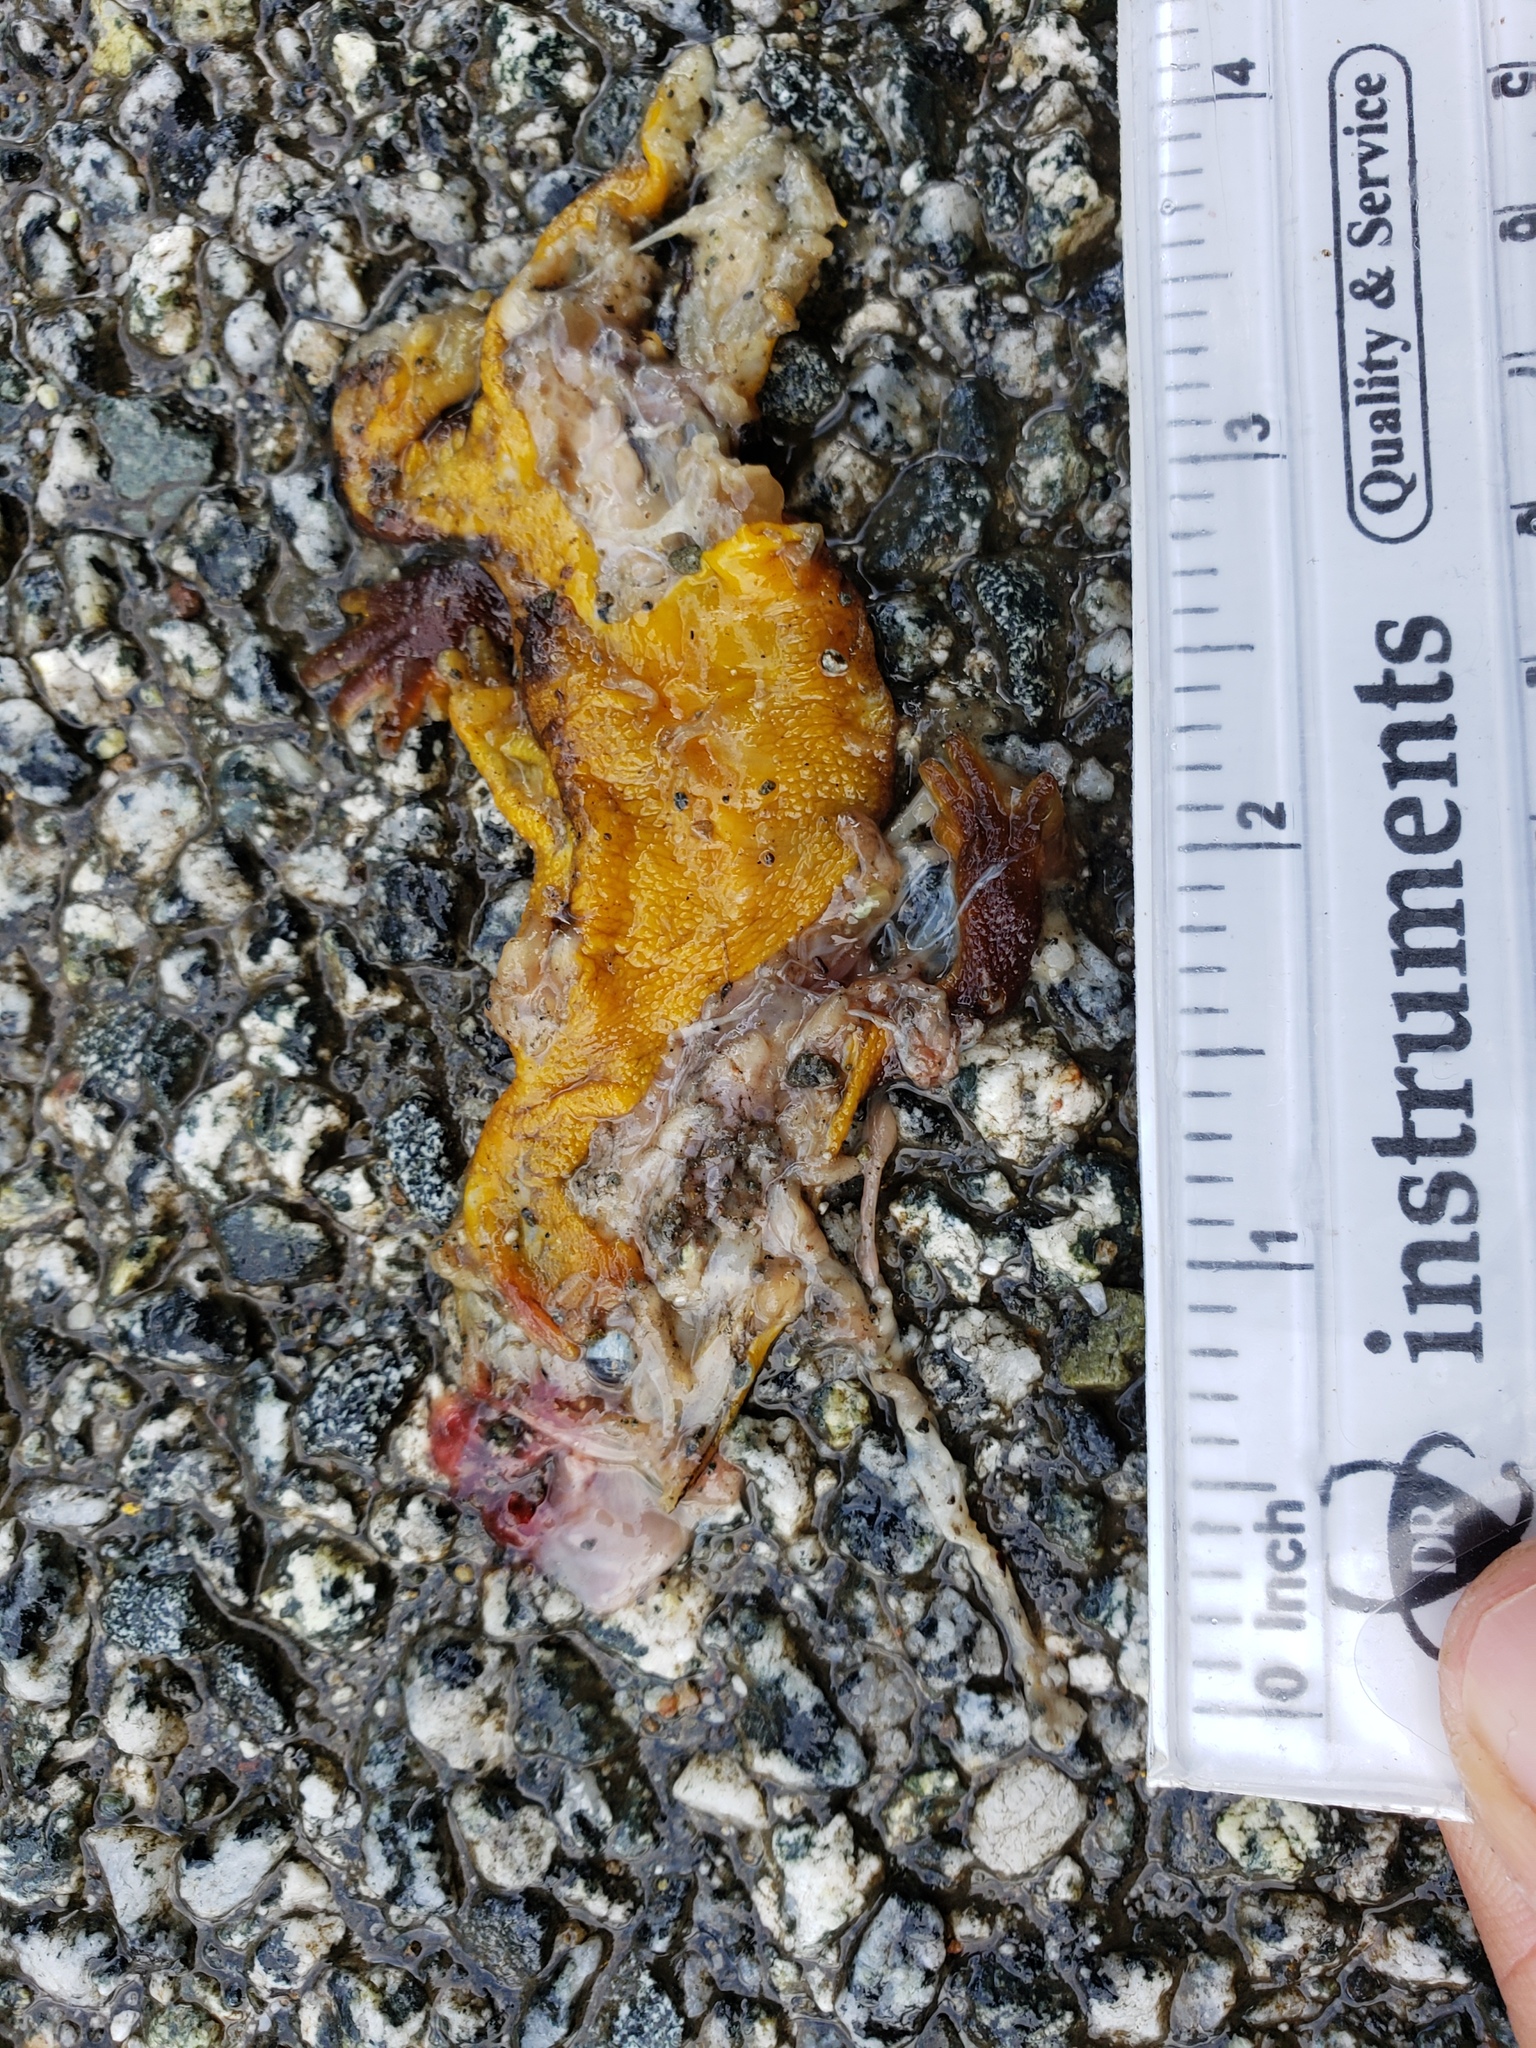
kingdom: Animalia
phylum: Chordata
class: Amphibia
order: Caudata
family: Salamandridae
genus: Taricha
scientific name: Taricha
